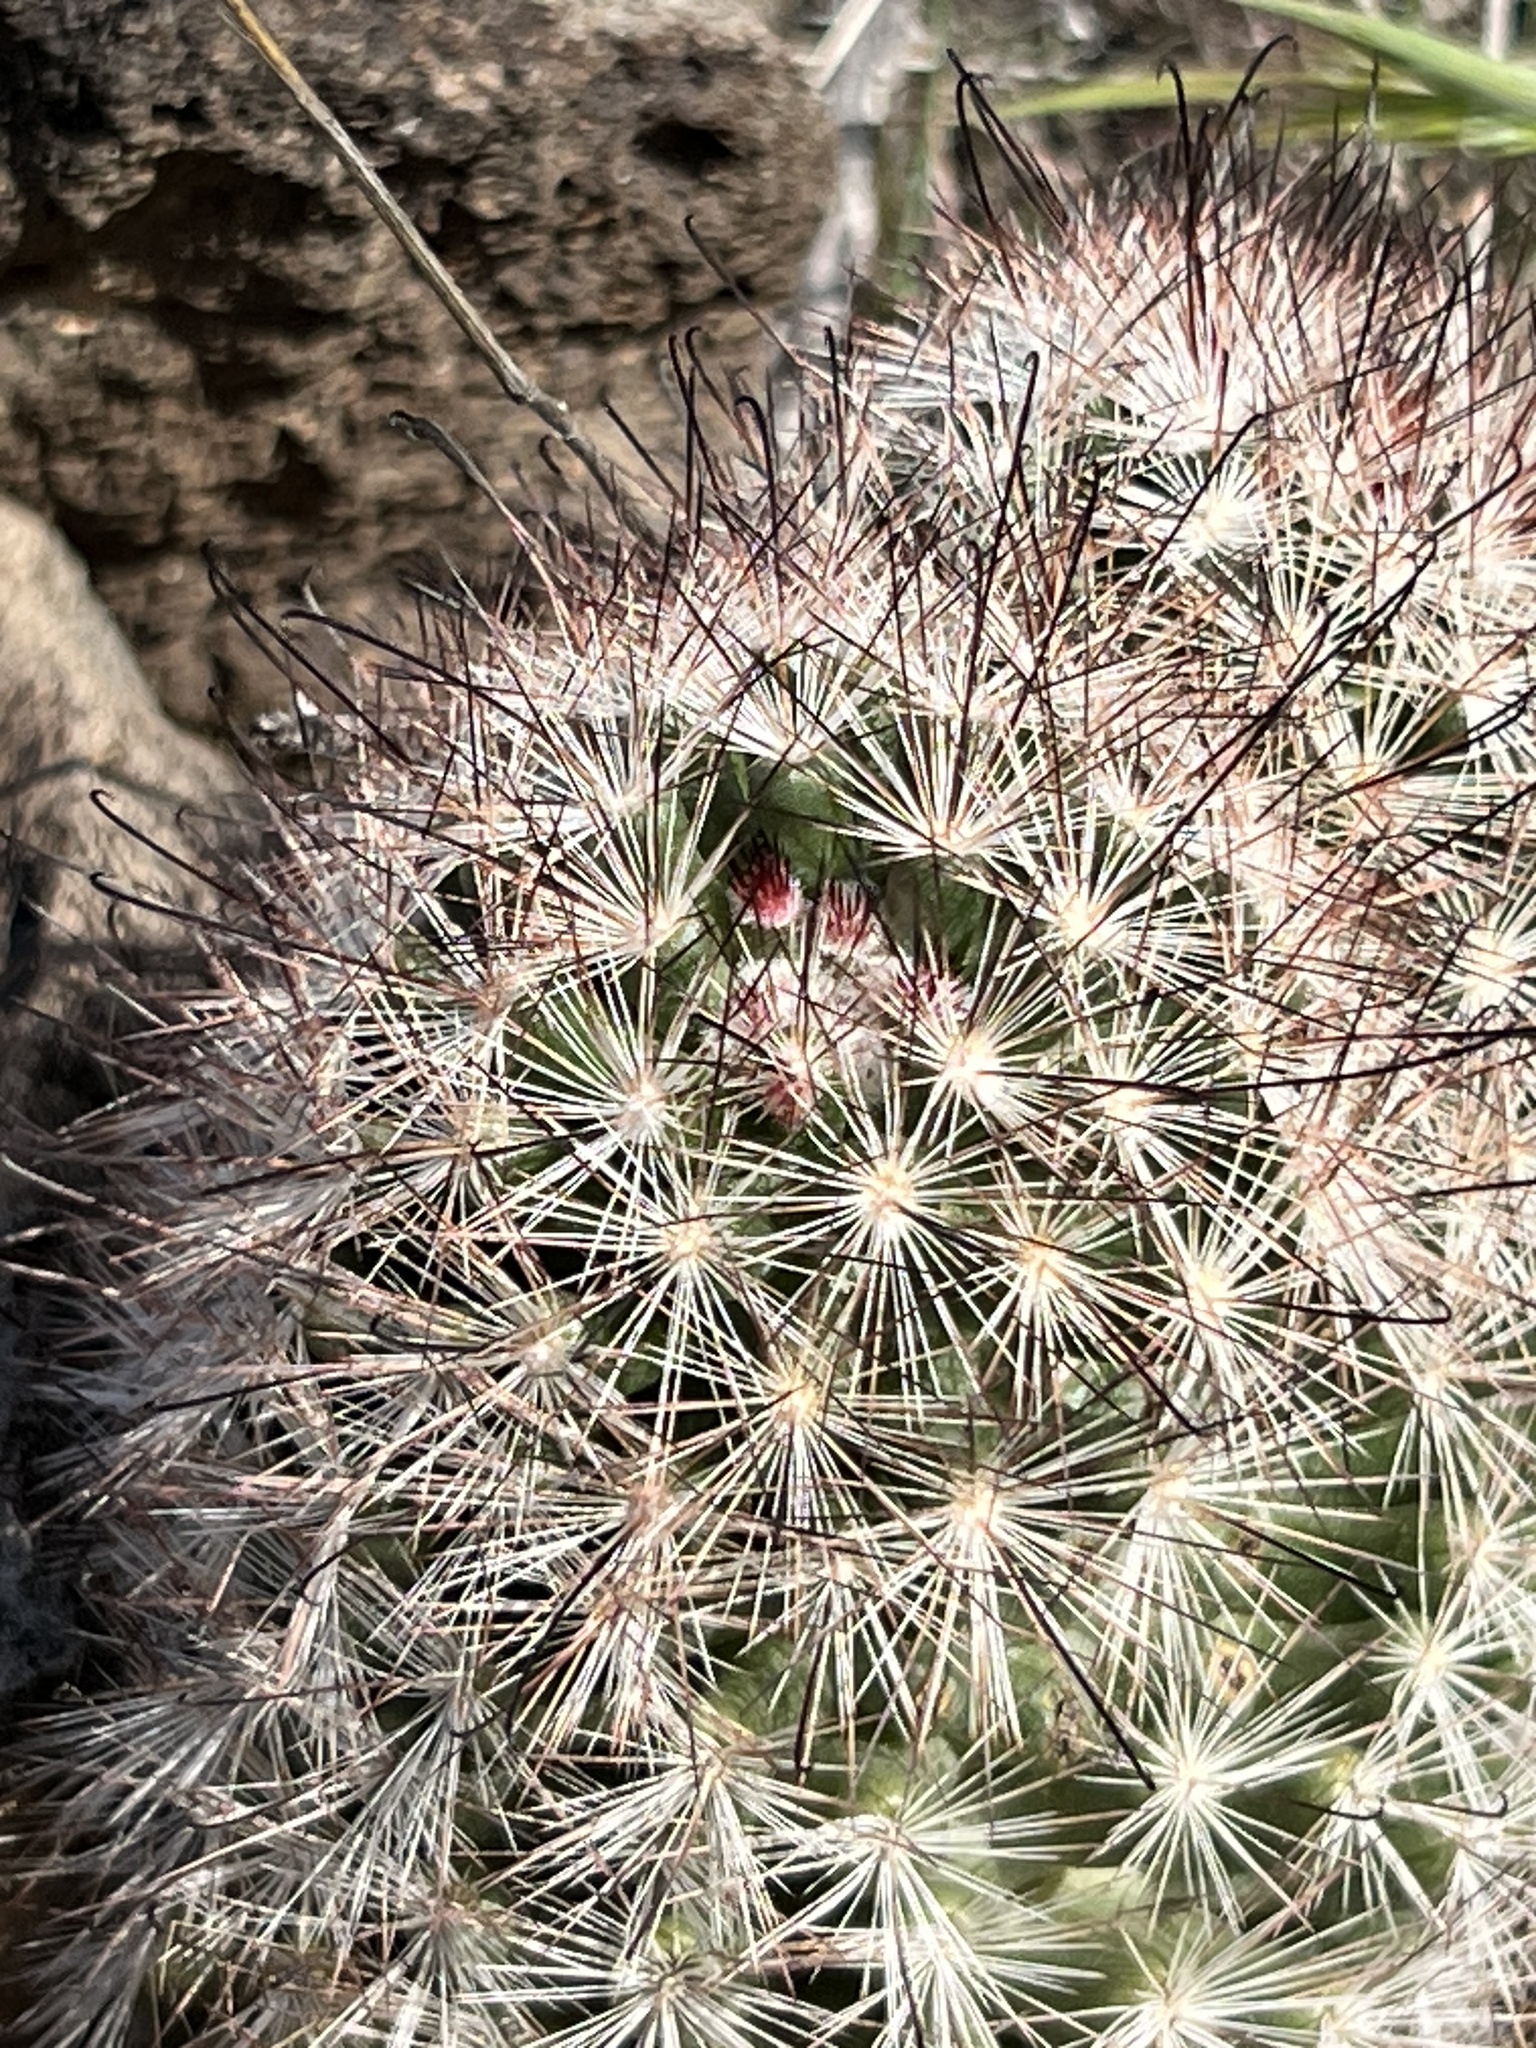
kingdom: Plantae
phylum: Tracheophyta
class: Magnoliopsida
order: Caryophyllales
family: Cactaceae
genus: Cochemiea
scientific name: Cochemiea tetrancistra
